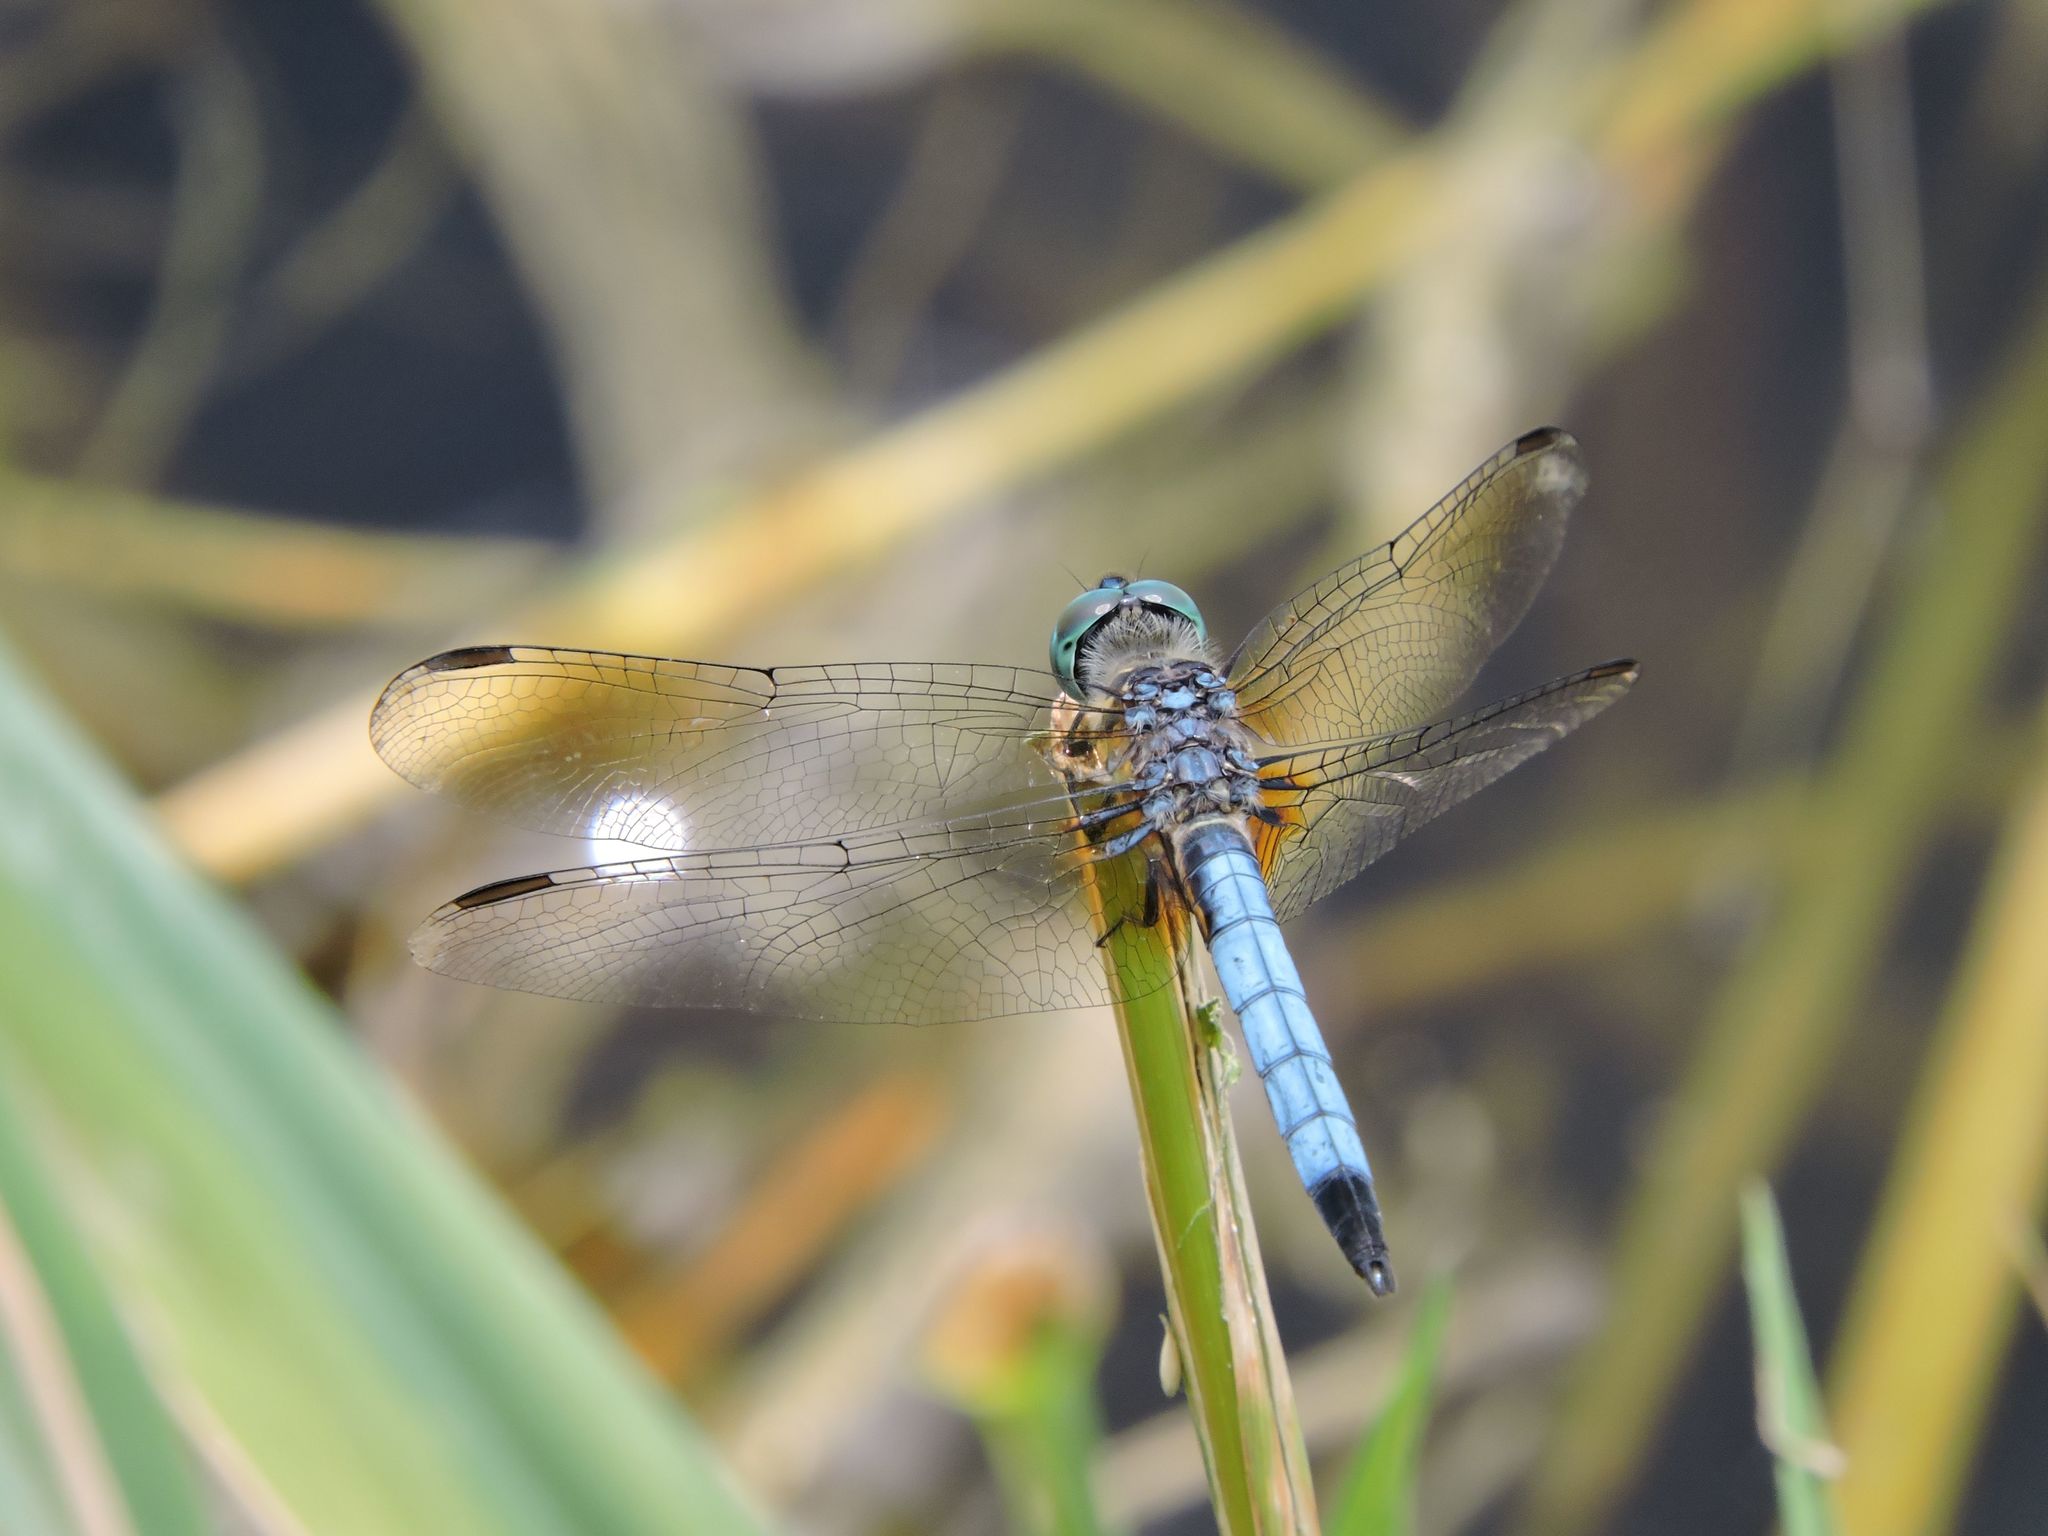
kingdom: Animalia
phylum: Arthropoda
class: Insecta
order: Odonata
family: Libellulidae
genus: Pachydiplax
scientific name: Pachydiplax longipennis
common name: Blue dasher
